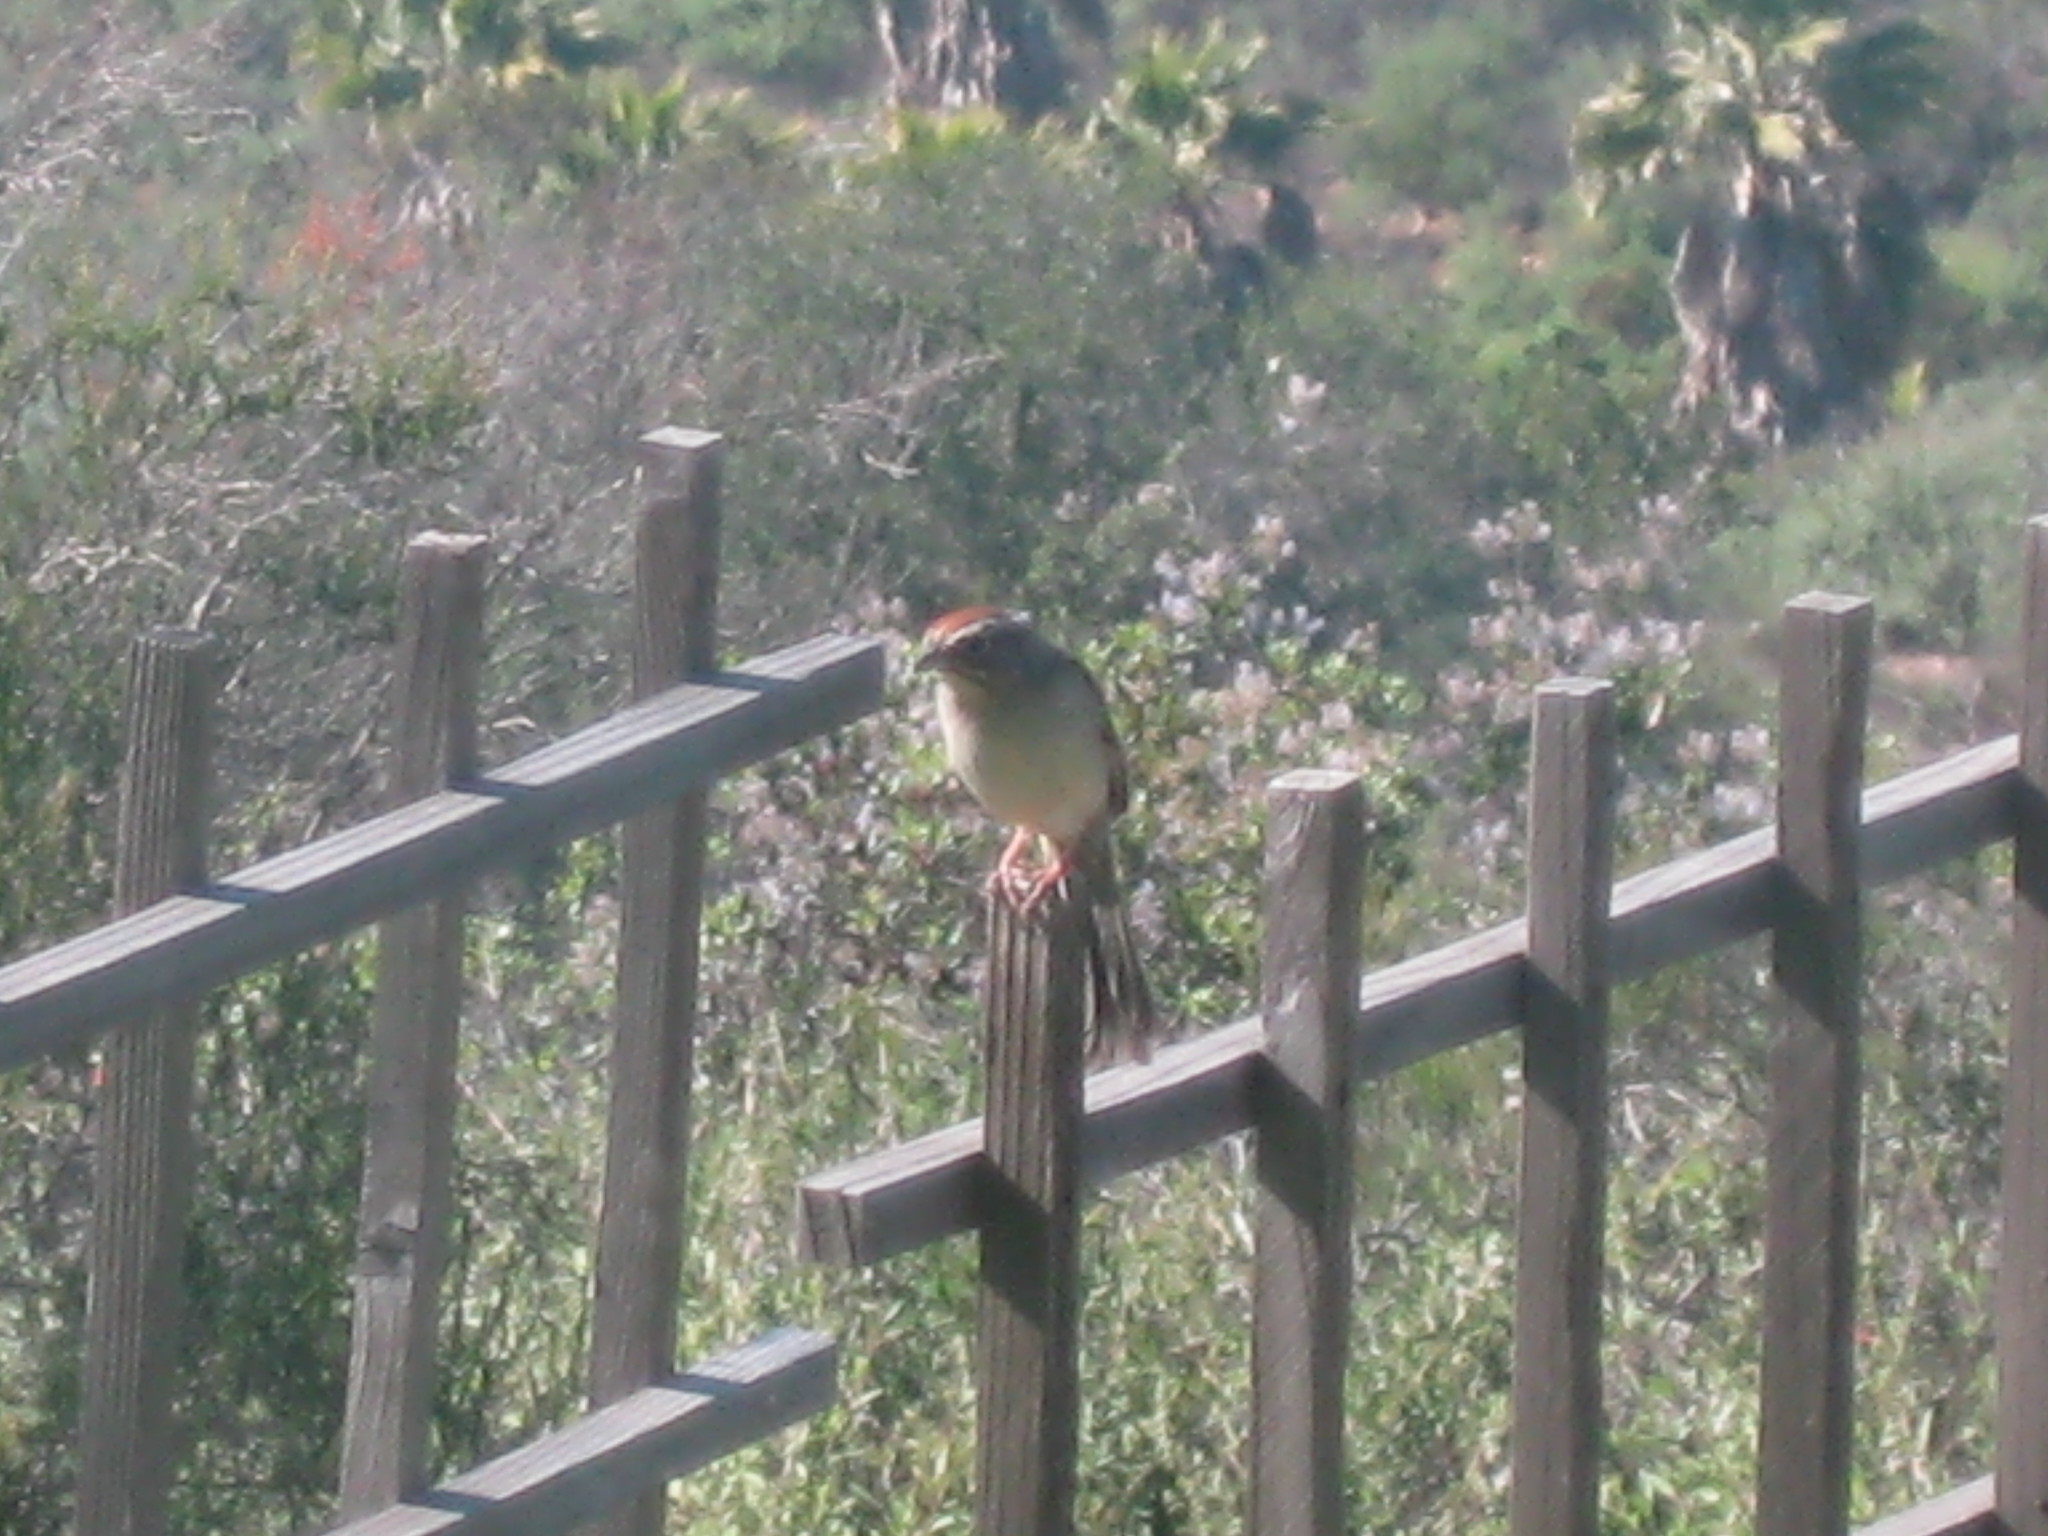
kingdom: Animalia
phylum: Chordata
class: Aves
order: Passeriformes
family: Passerellidae
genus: Aimophila
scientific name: Aimophila ruficeps
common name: Rufous-crowned sparrow
